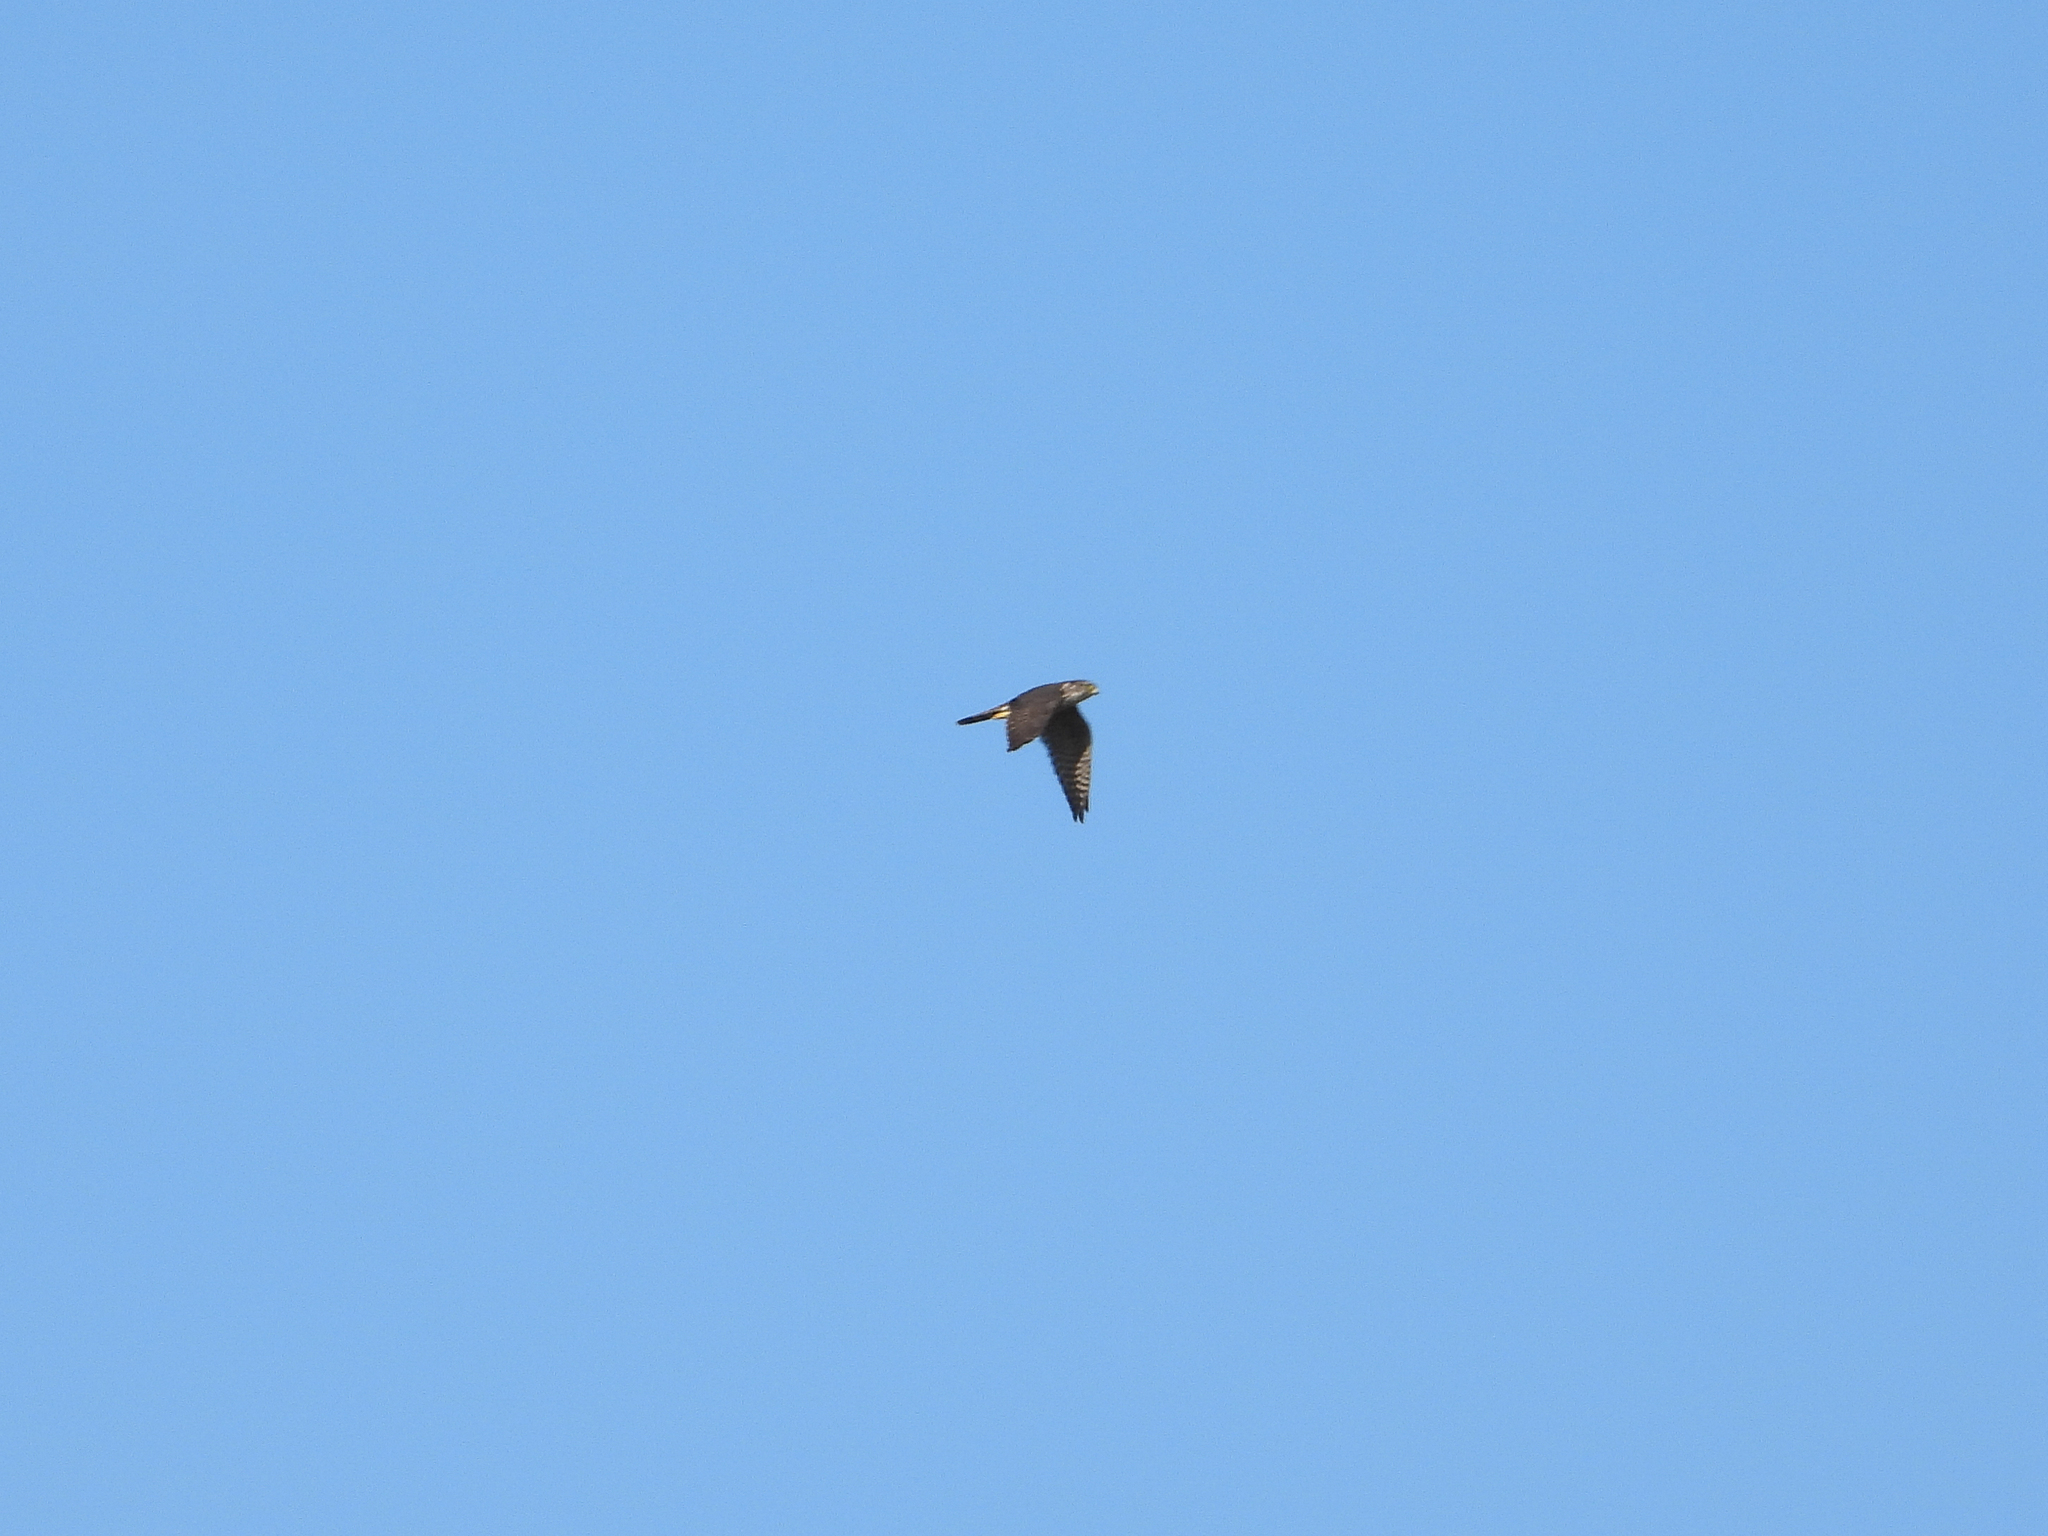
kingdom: Animalia
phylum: Chordata
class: Aves
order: Falconiformes
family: Falconidae
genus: Falco
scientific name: Falco columbarius
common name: Merlin
